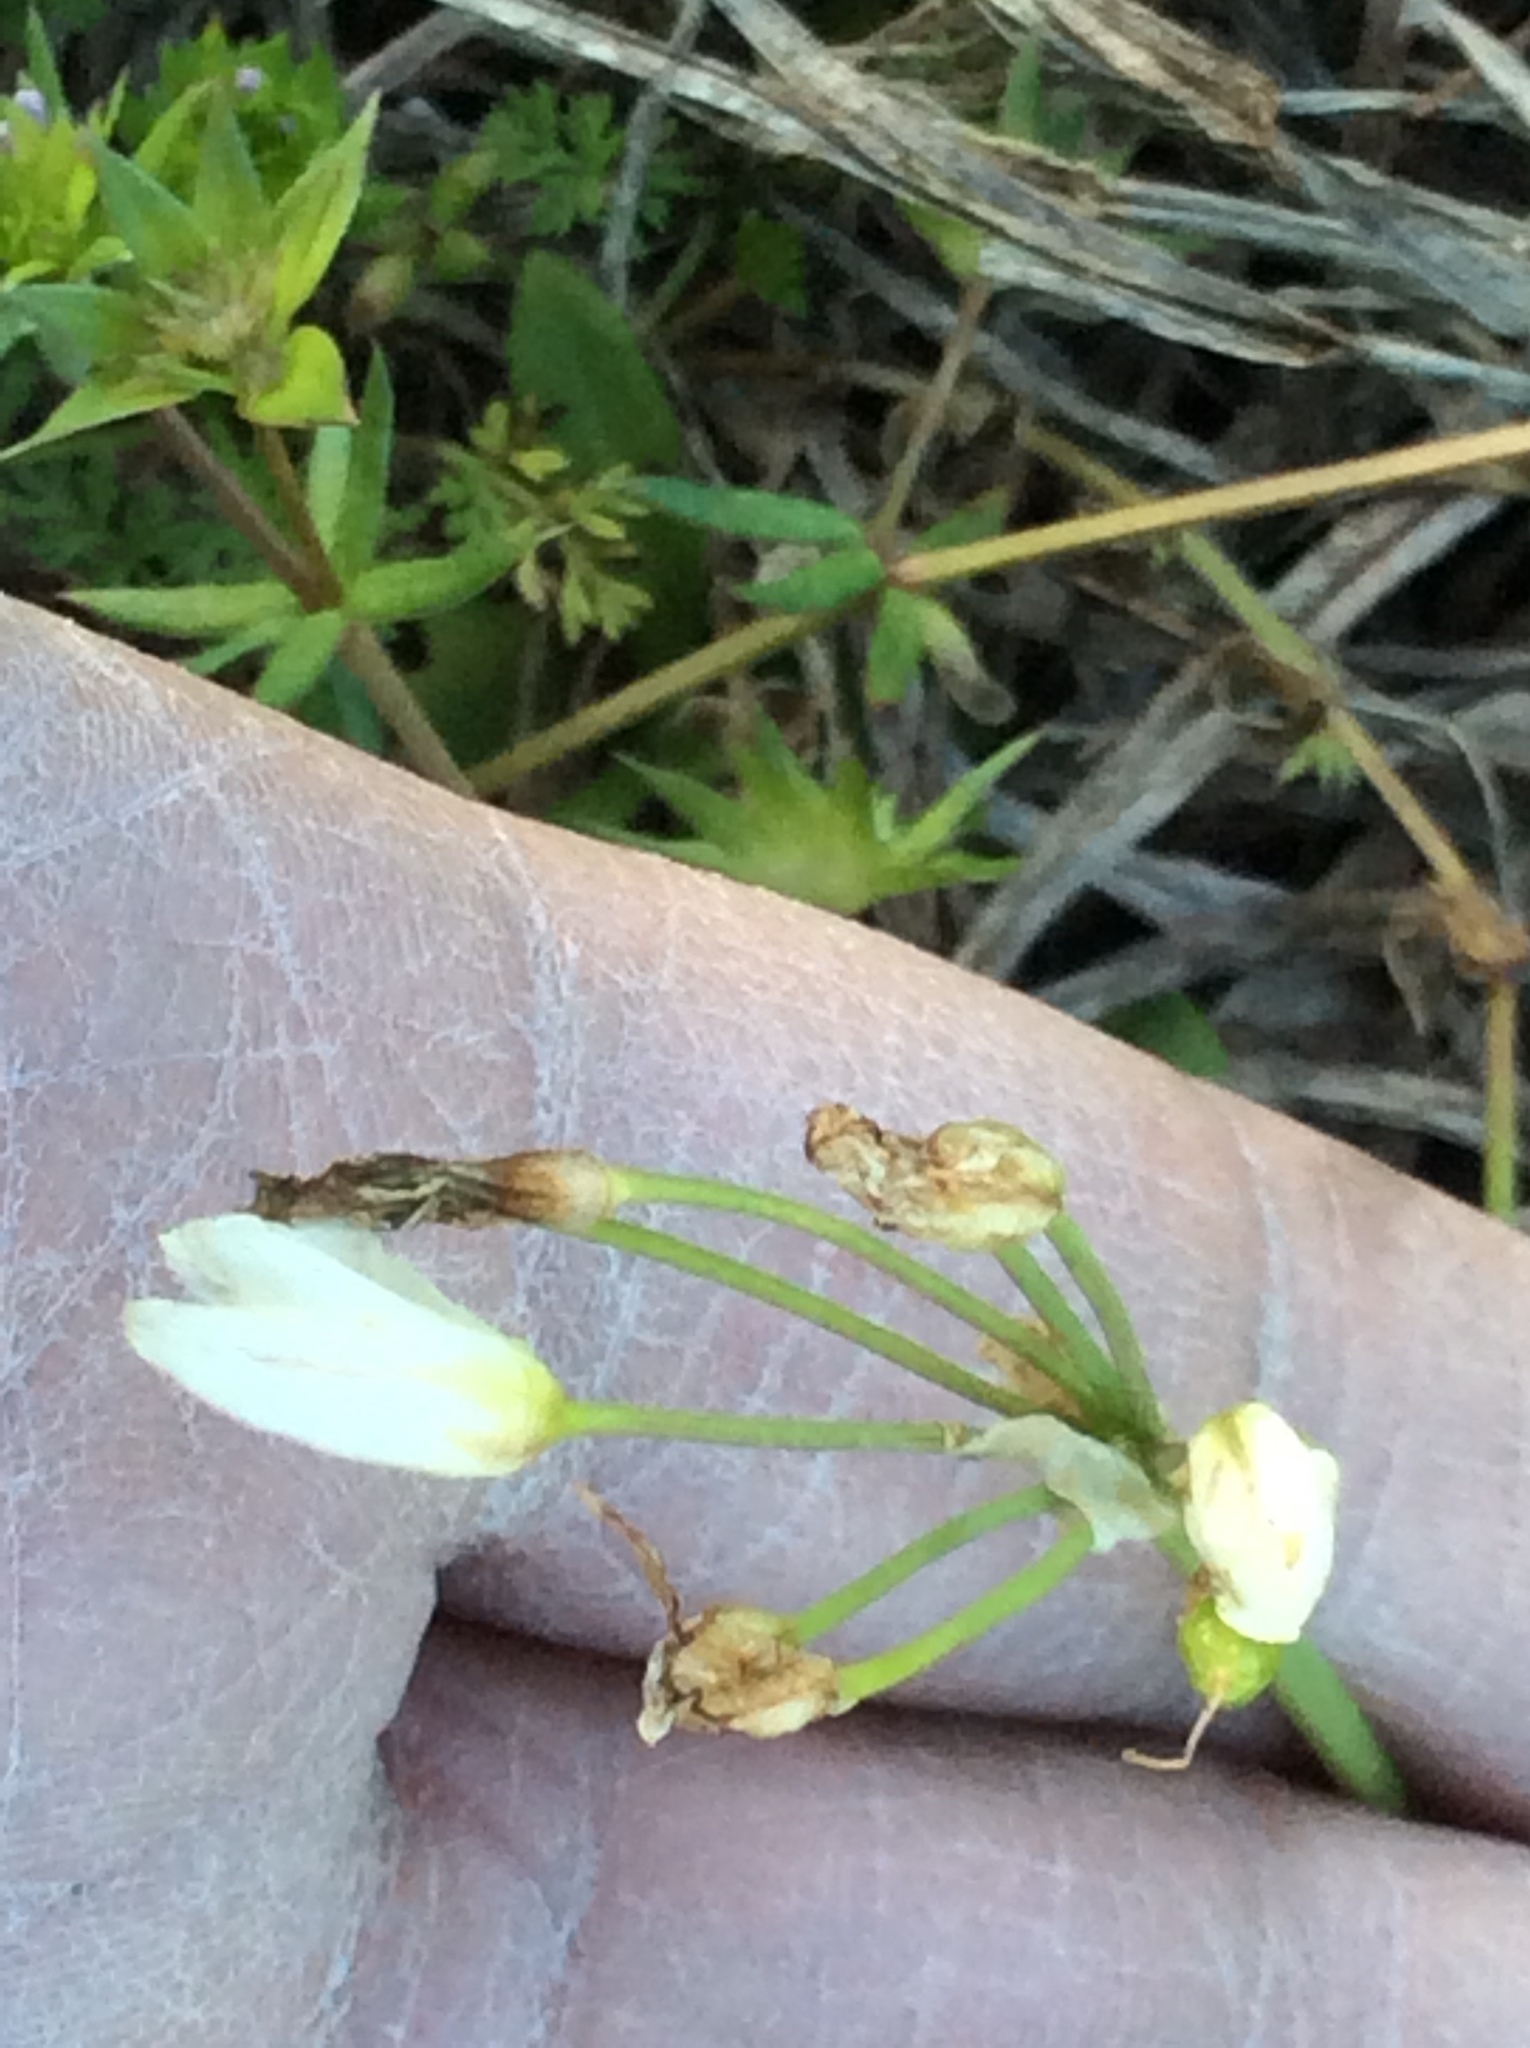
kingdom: Plantae
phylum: Tracheophyta
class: Liliopsida
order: Asparagales
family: Amaryllidaceae
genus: Nothoscordum
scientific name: Nothoscordum bivalve
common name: Crow-poison
